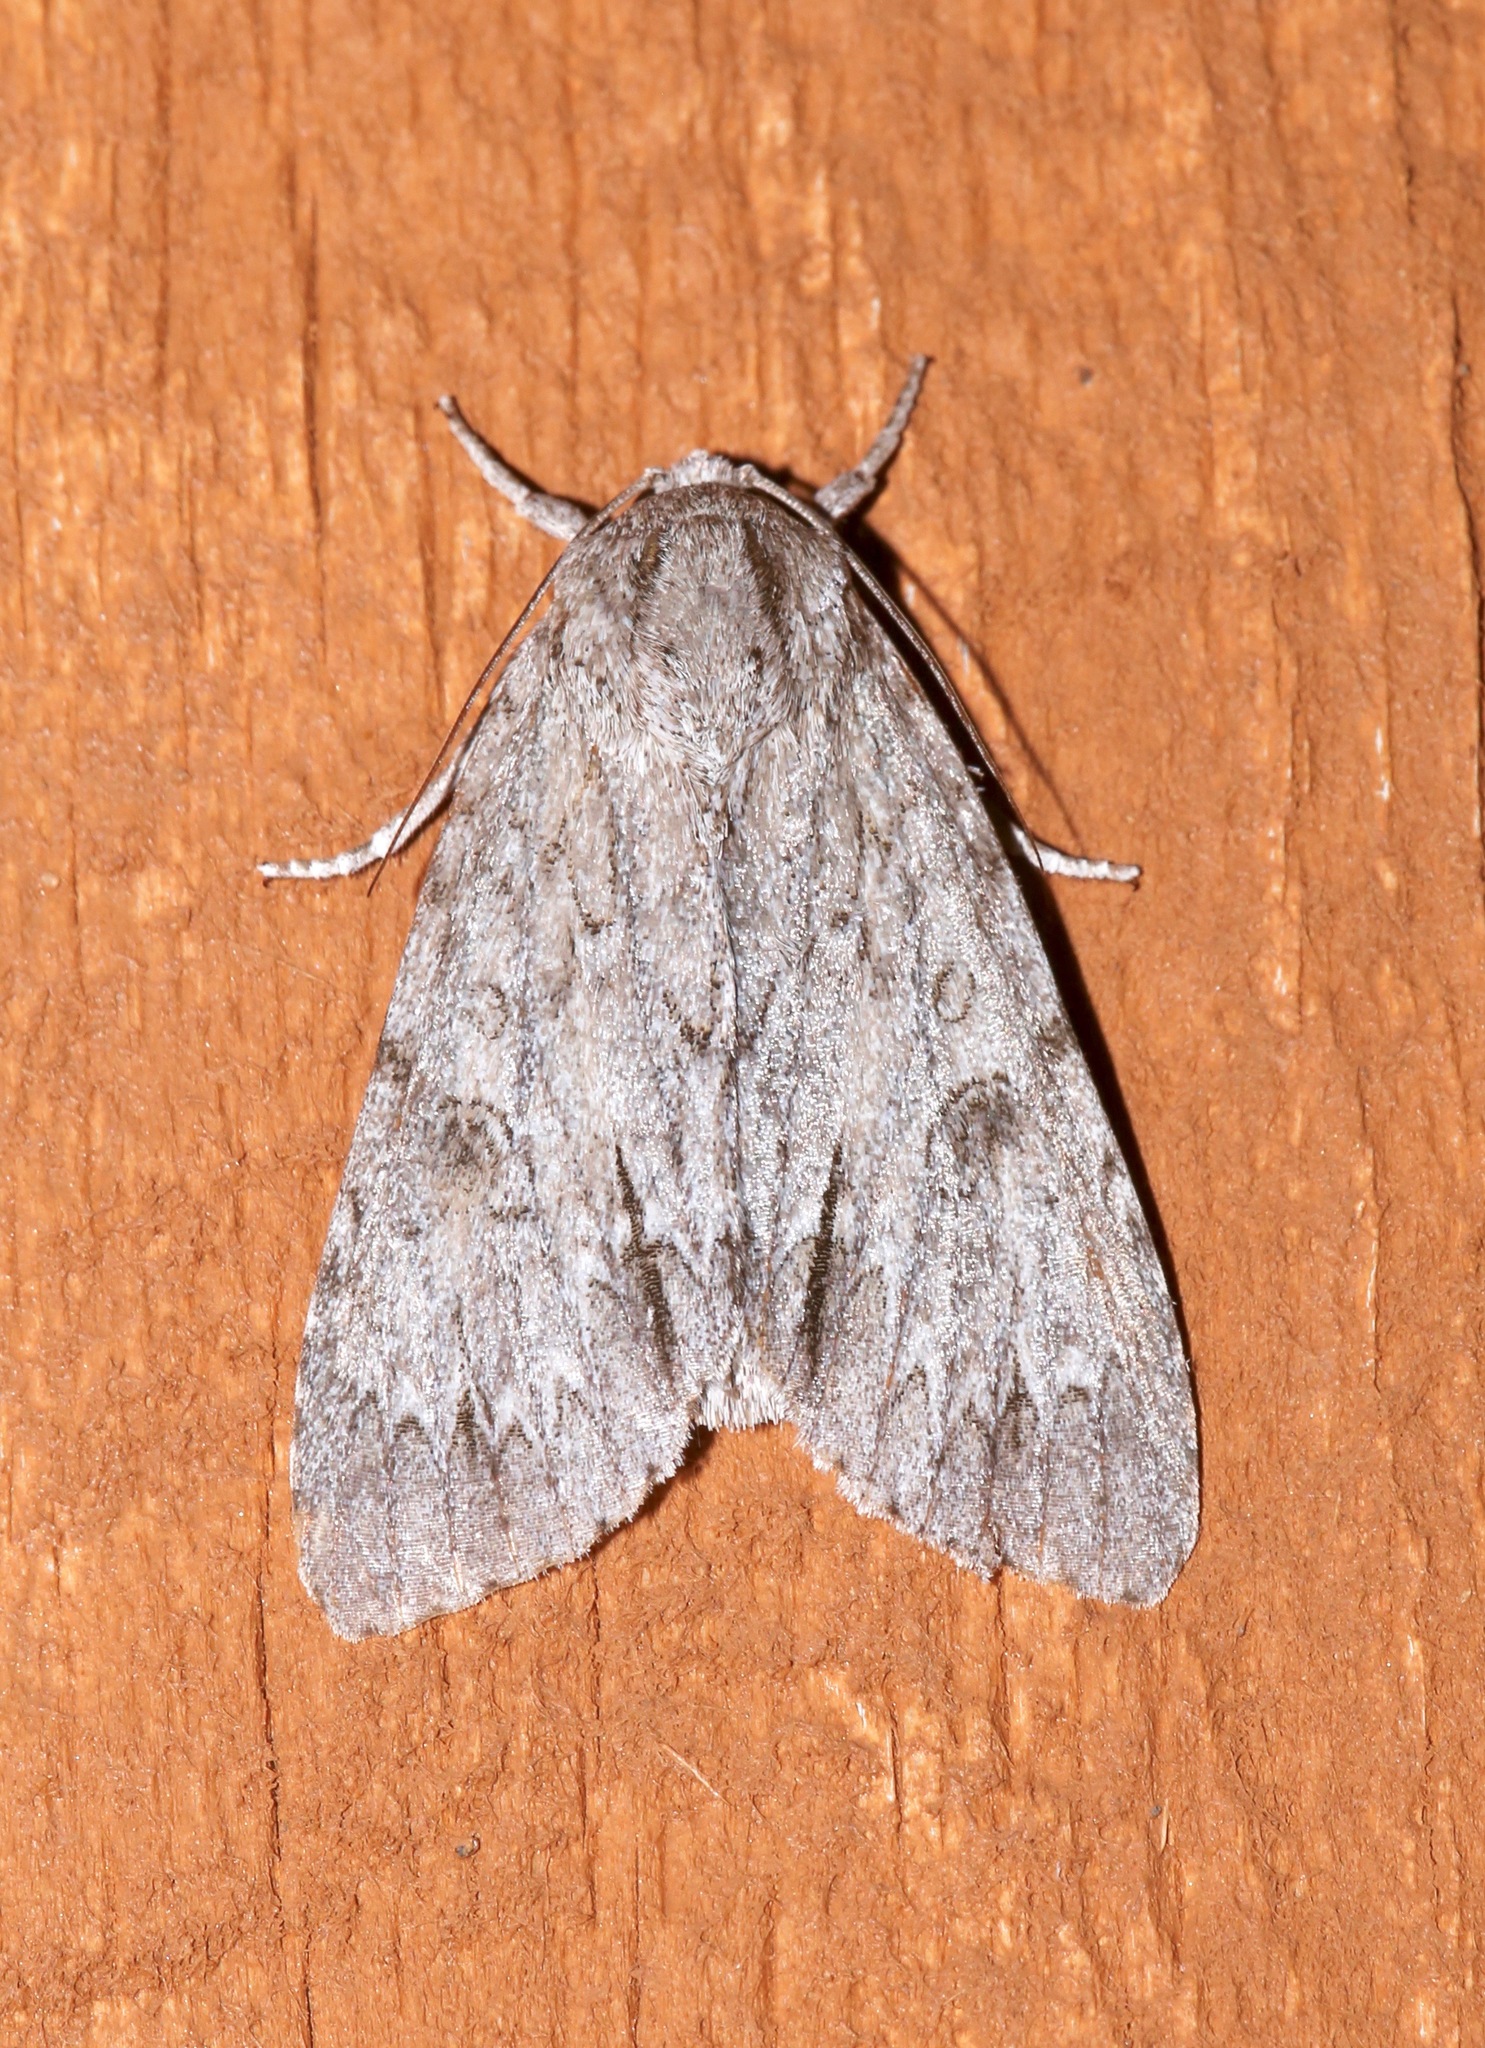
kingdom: Animalia
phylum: Arthropoda
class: Insecta
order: Lepidoptera
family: Noctuidae
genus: Acronicta
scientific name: Acronicta americana
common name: American dagger
